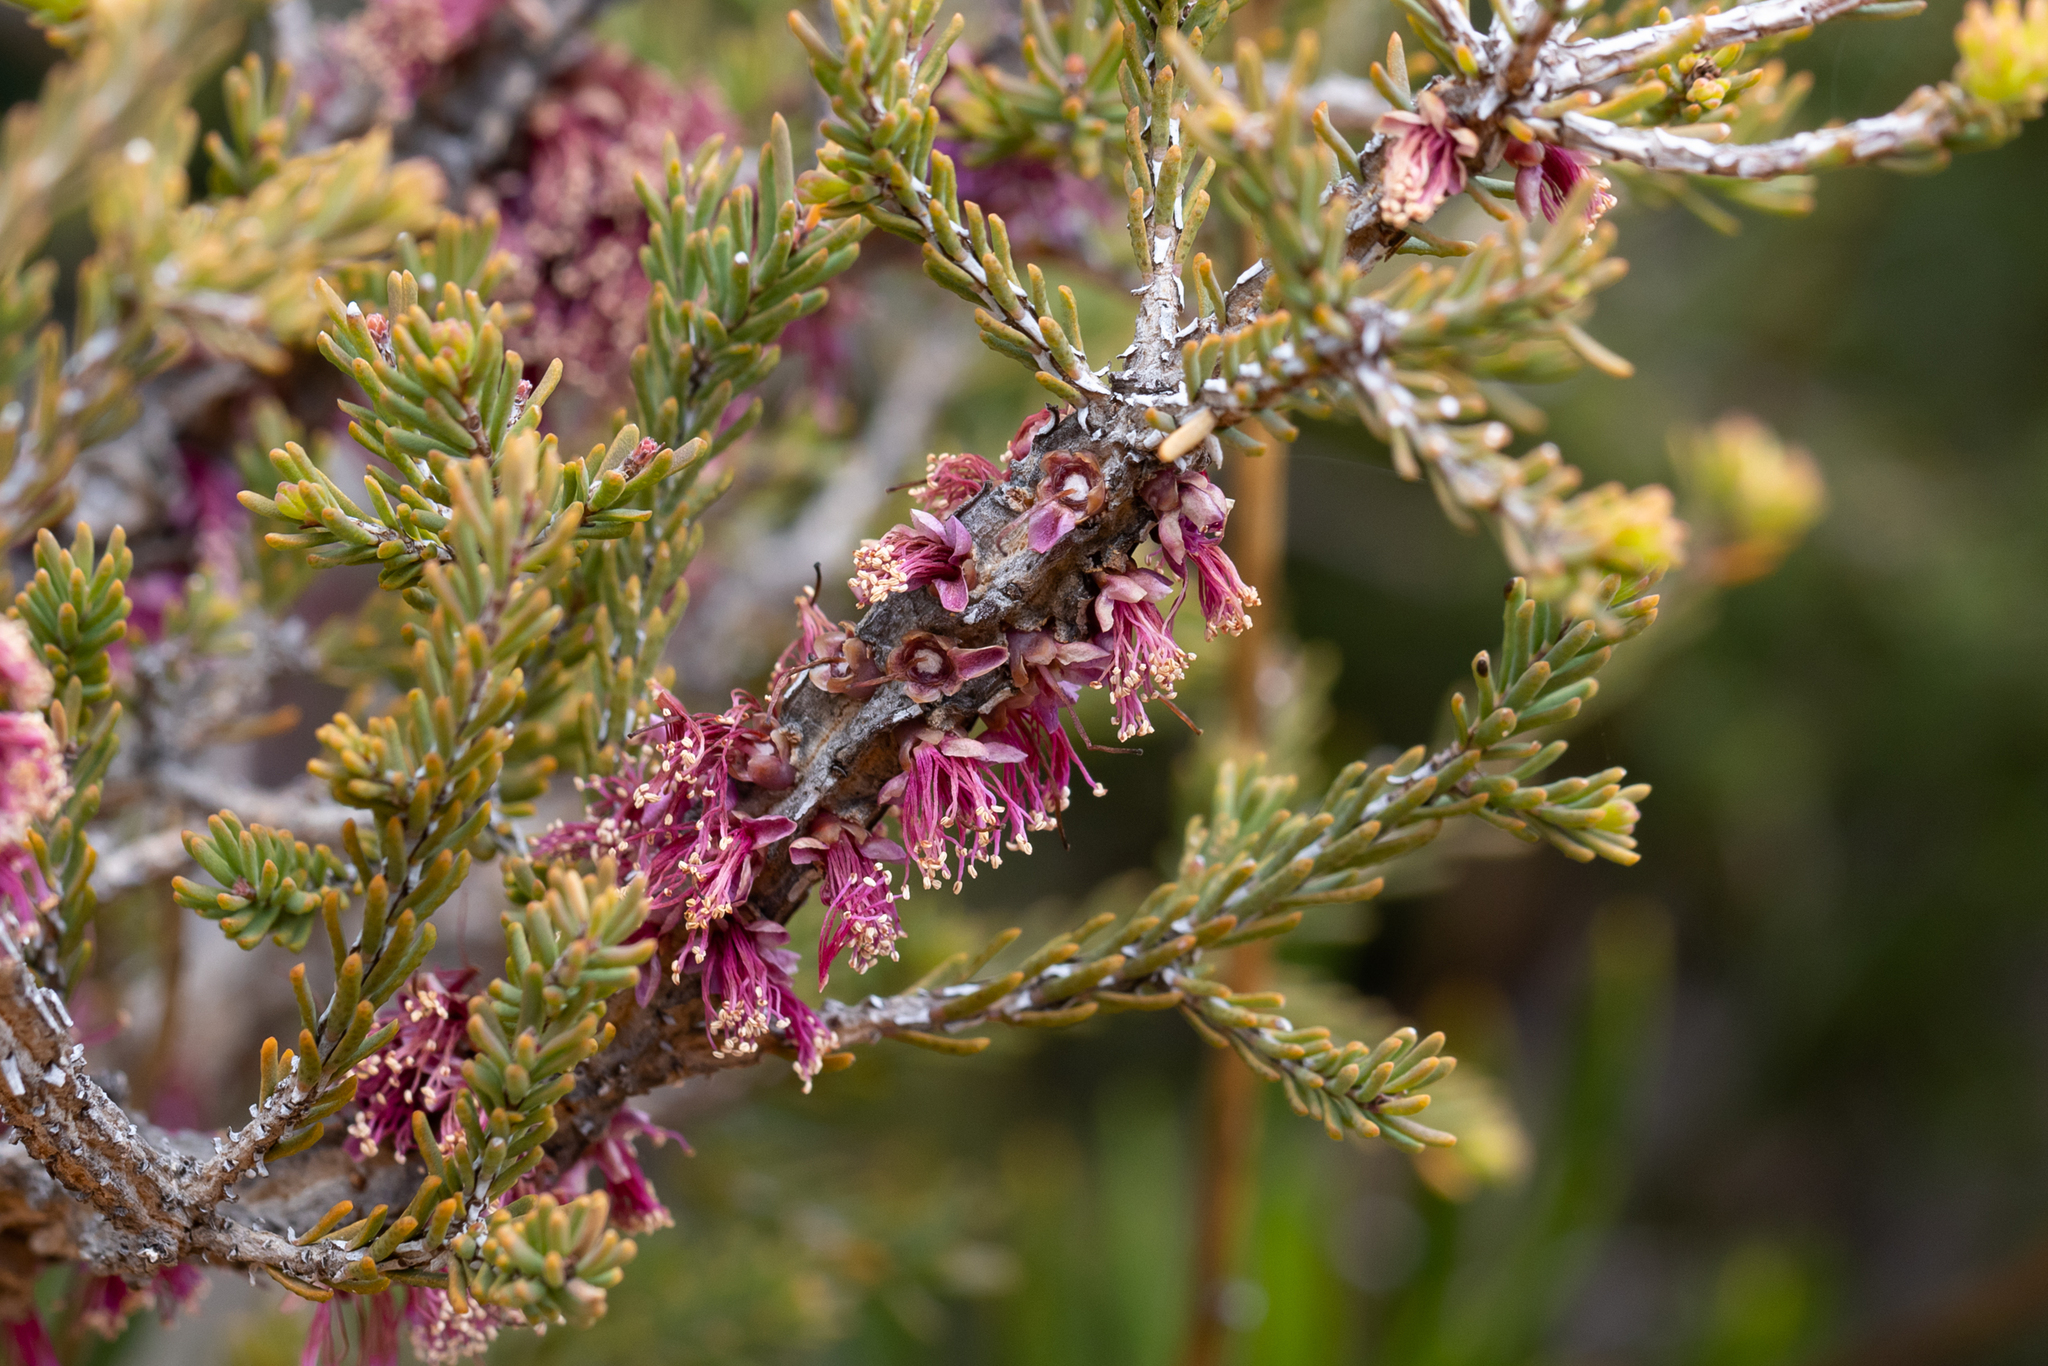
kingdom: Plantae
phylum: Tracheophyta
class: Magnoliopsida
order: Myrtales
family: Myrtaceae
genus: Melaleuca
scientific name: Melaleuca suberosa
